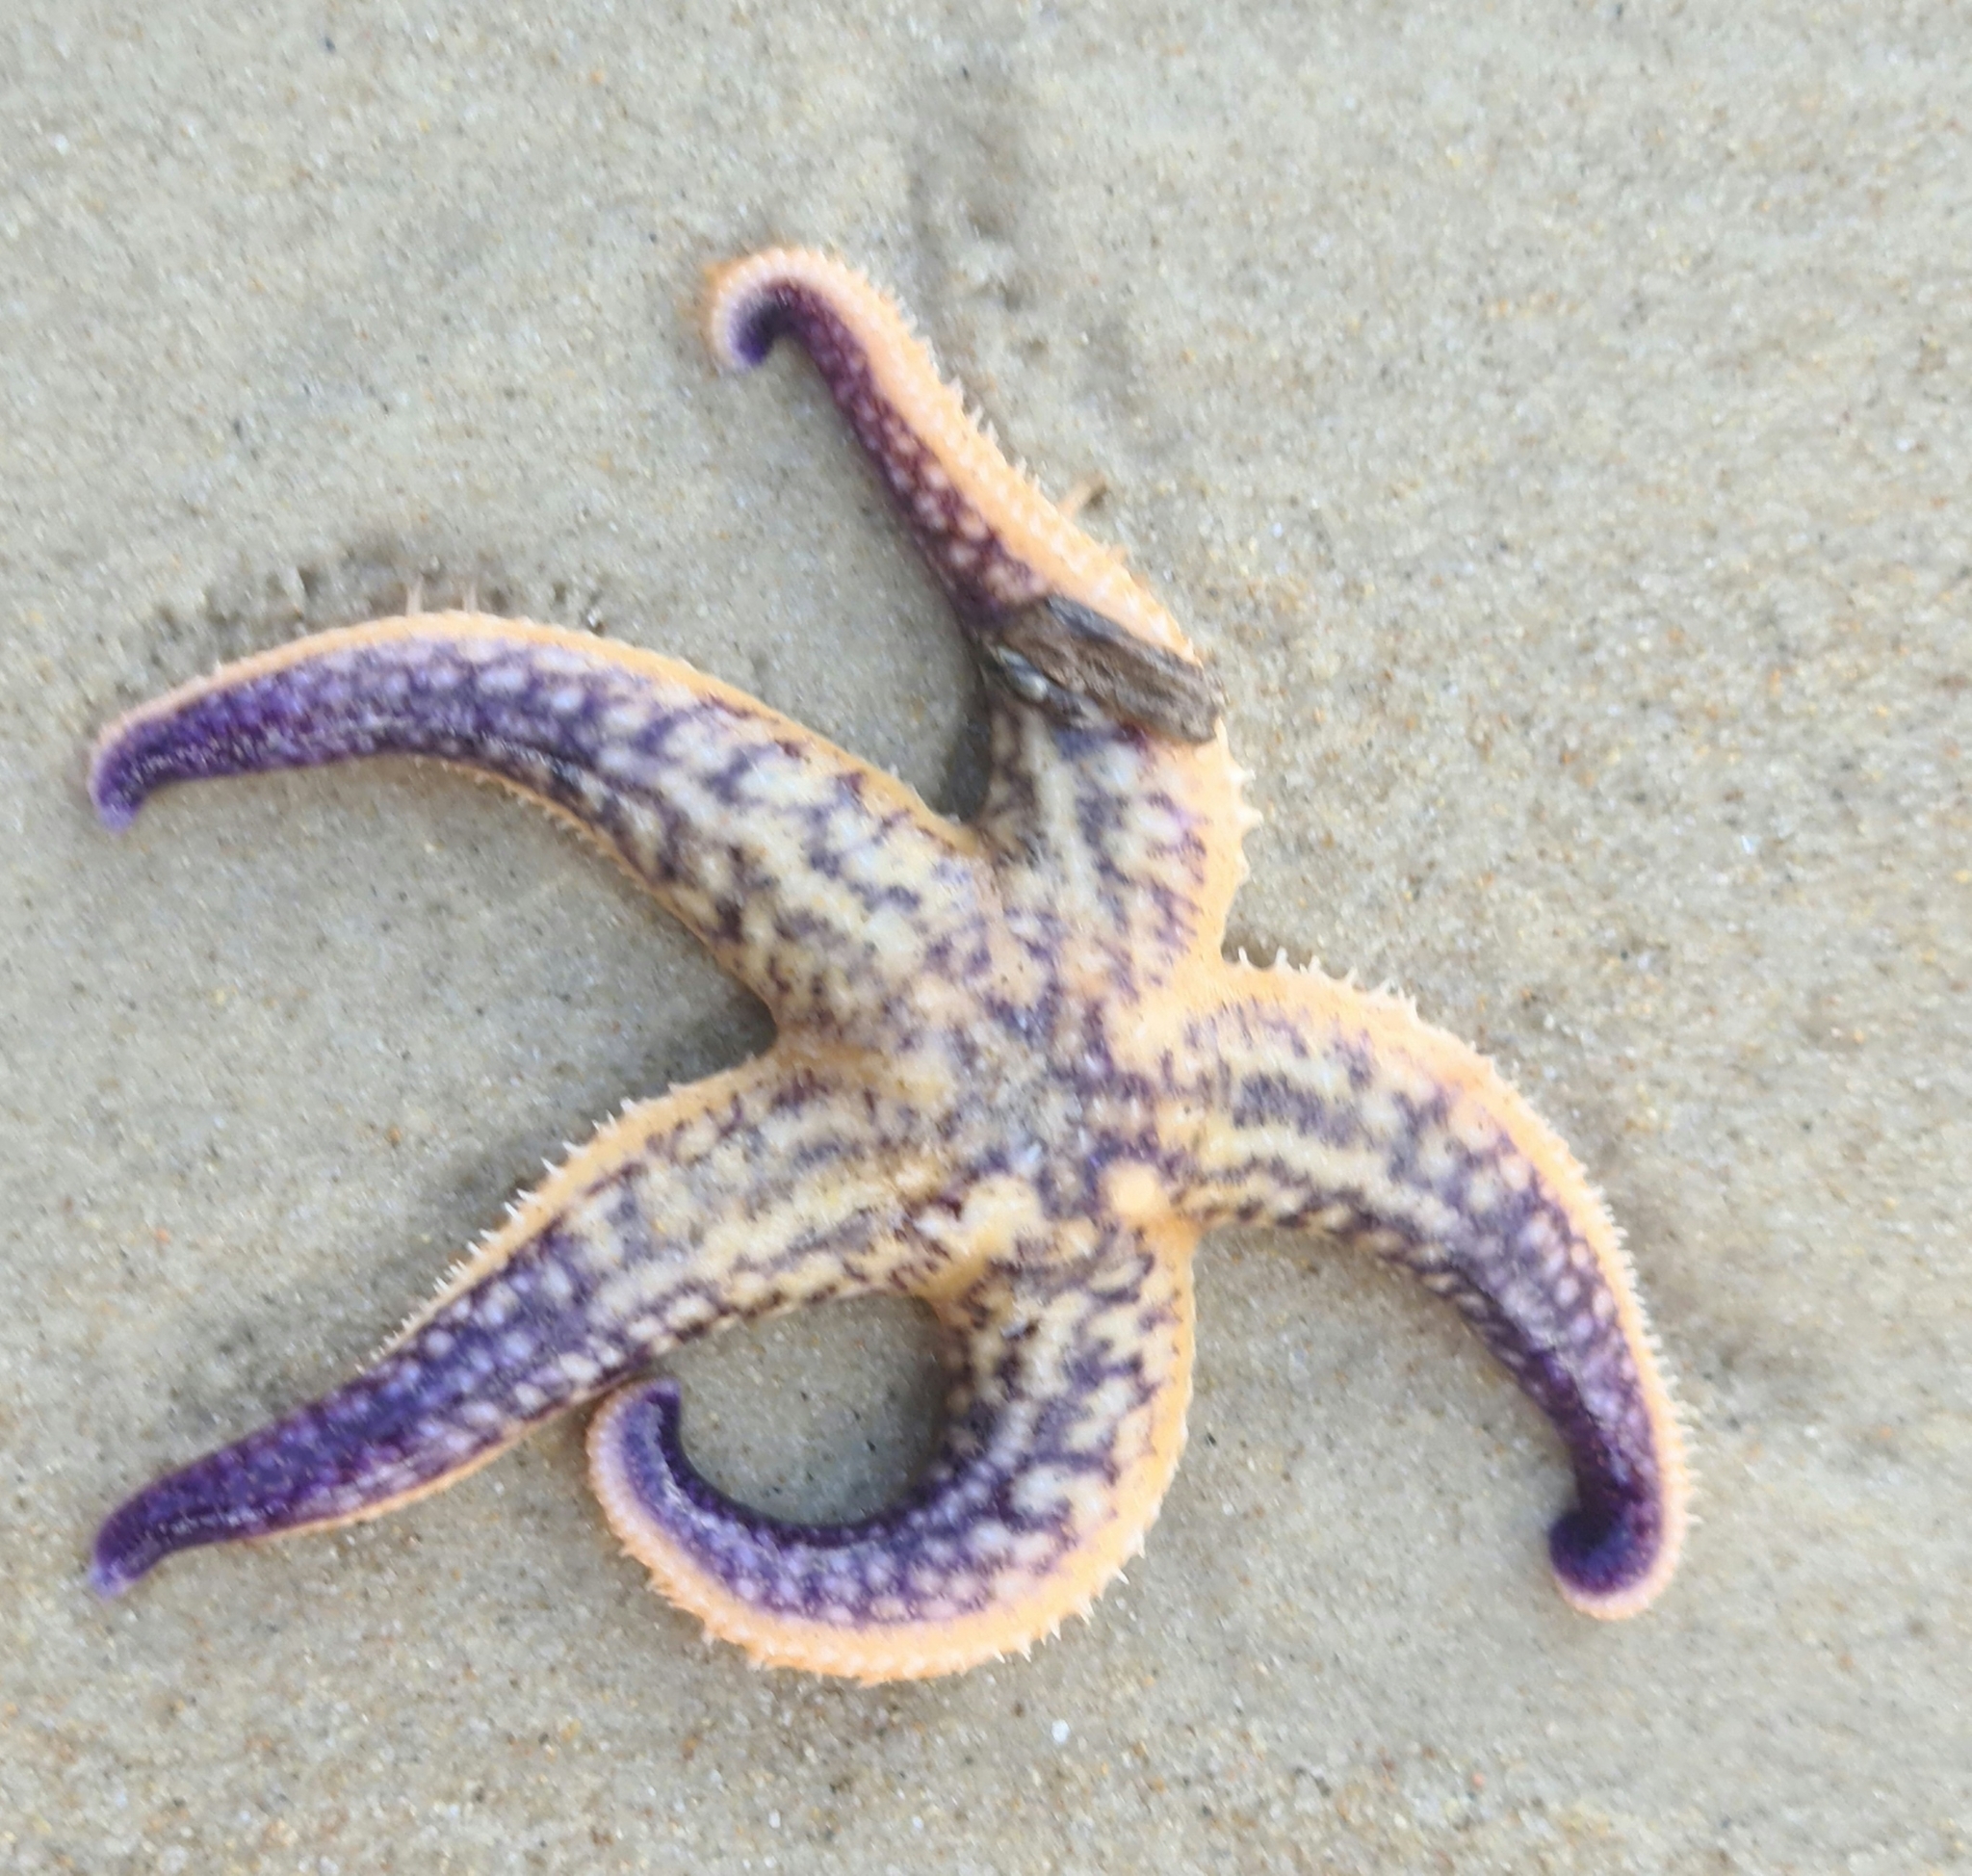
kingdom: Animalia
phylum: Echinodermata
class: Asteroidea
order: Forcipulatida
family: Asteriidae
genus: Asterias
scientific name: Asterias amurensis
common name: Flat-bottomed star
